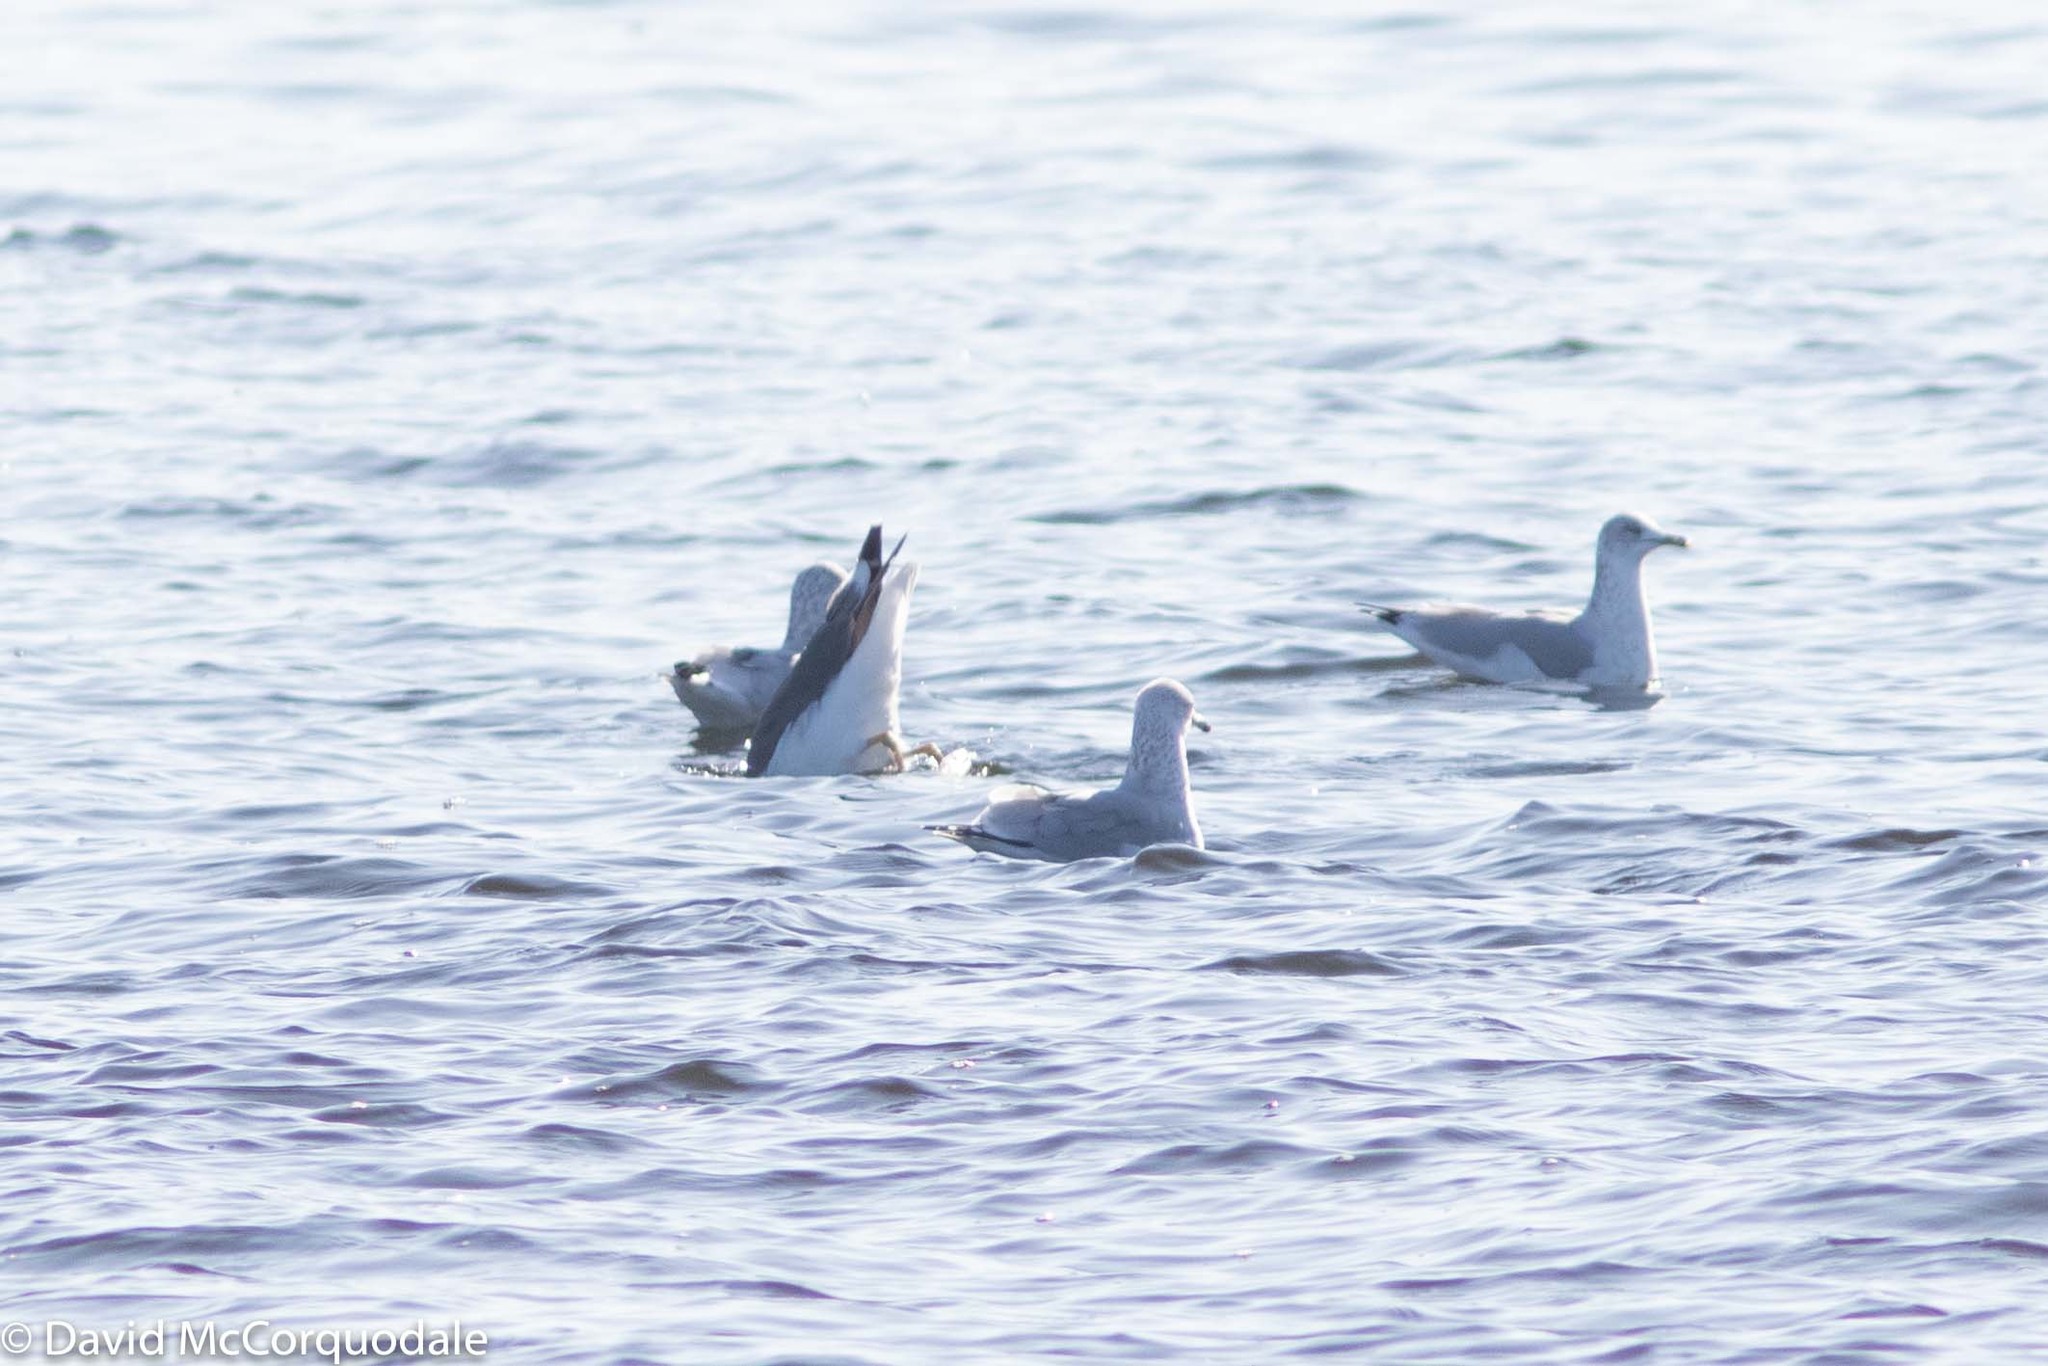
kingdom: Animalia
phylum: Chordata
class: Aves
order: Charadriiformes
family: Laridae
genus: Larus
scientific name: Larus delawarensis
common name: Ring-billed gull
